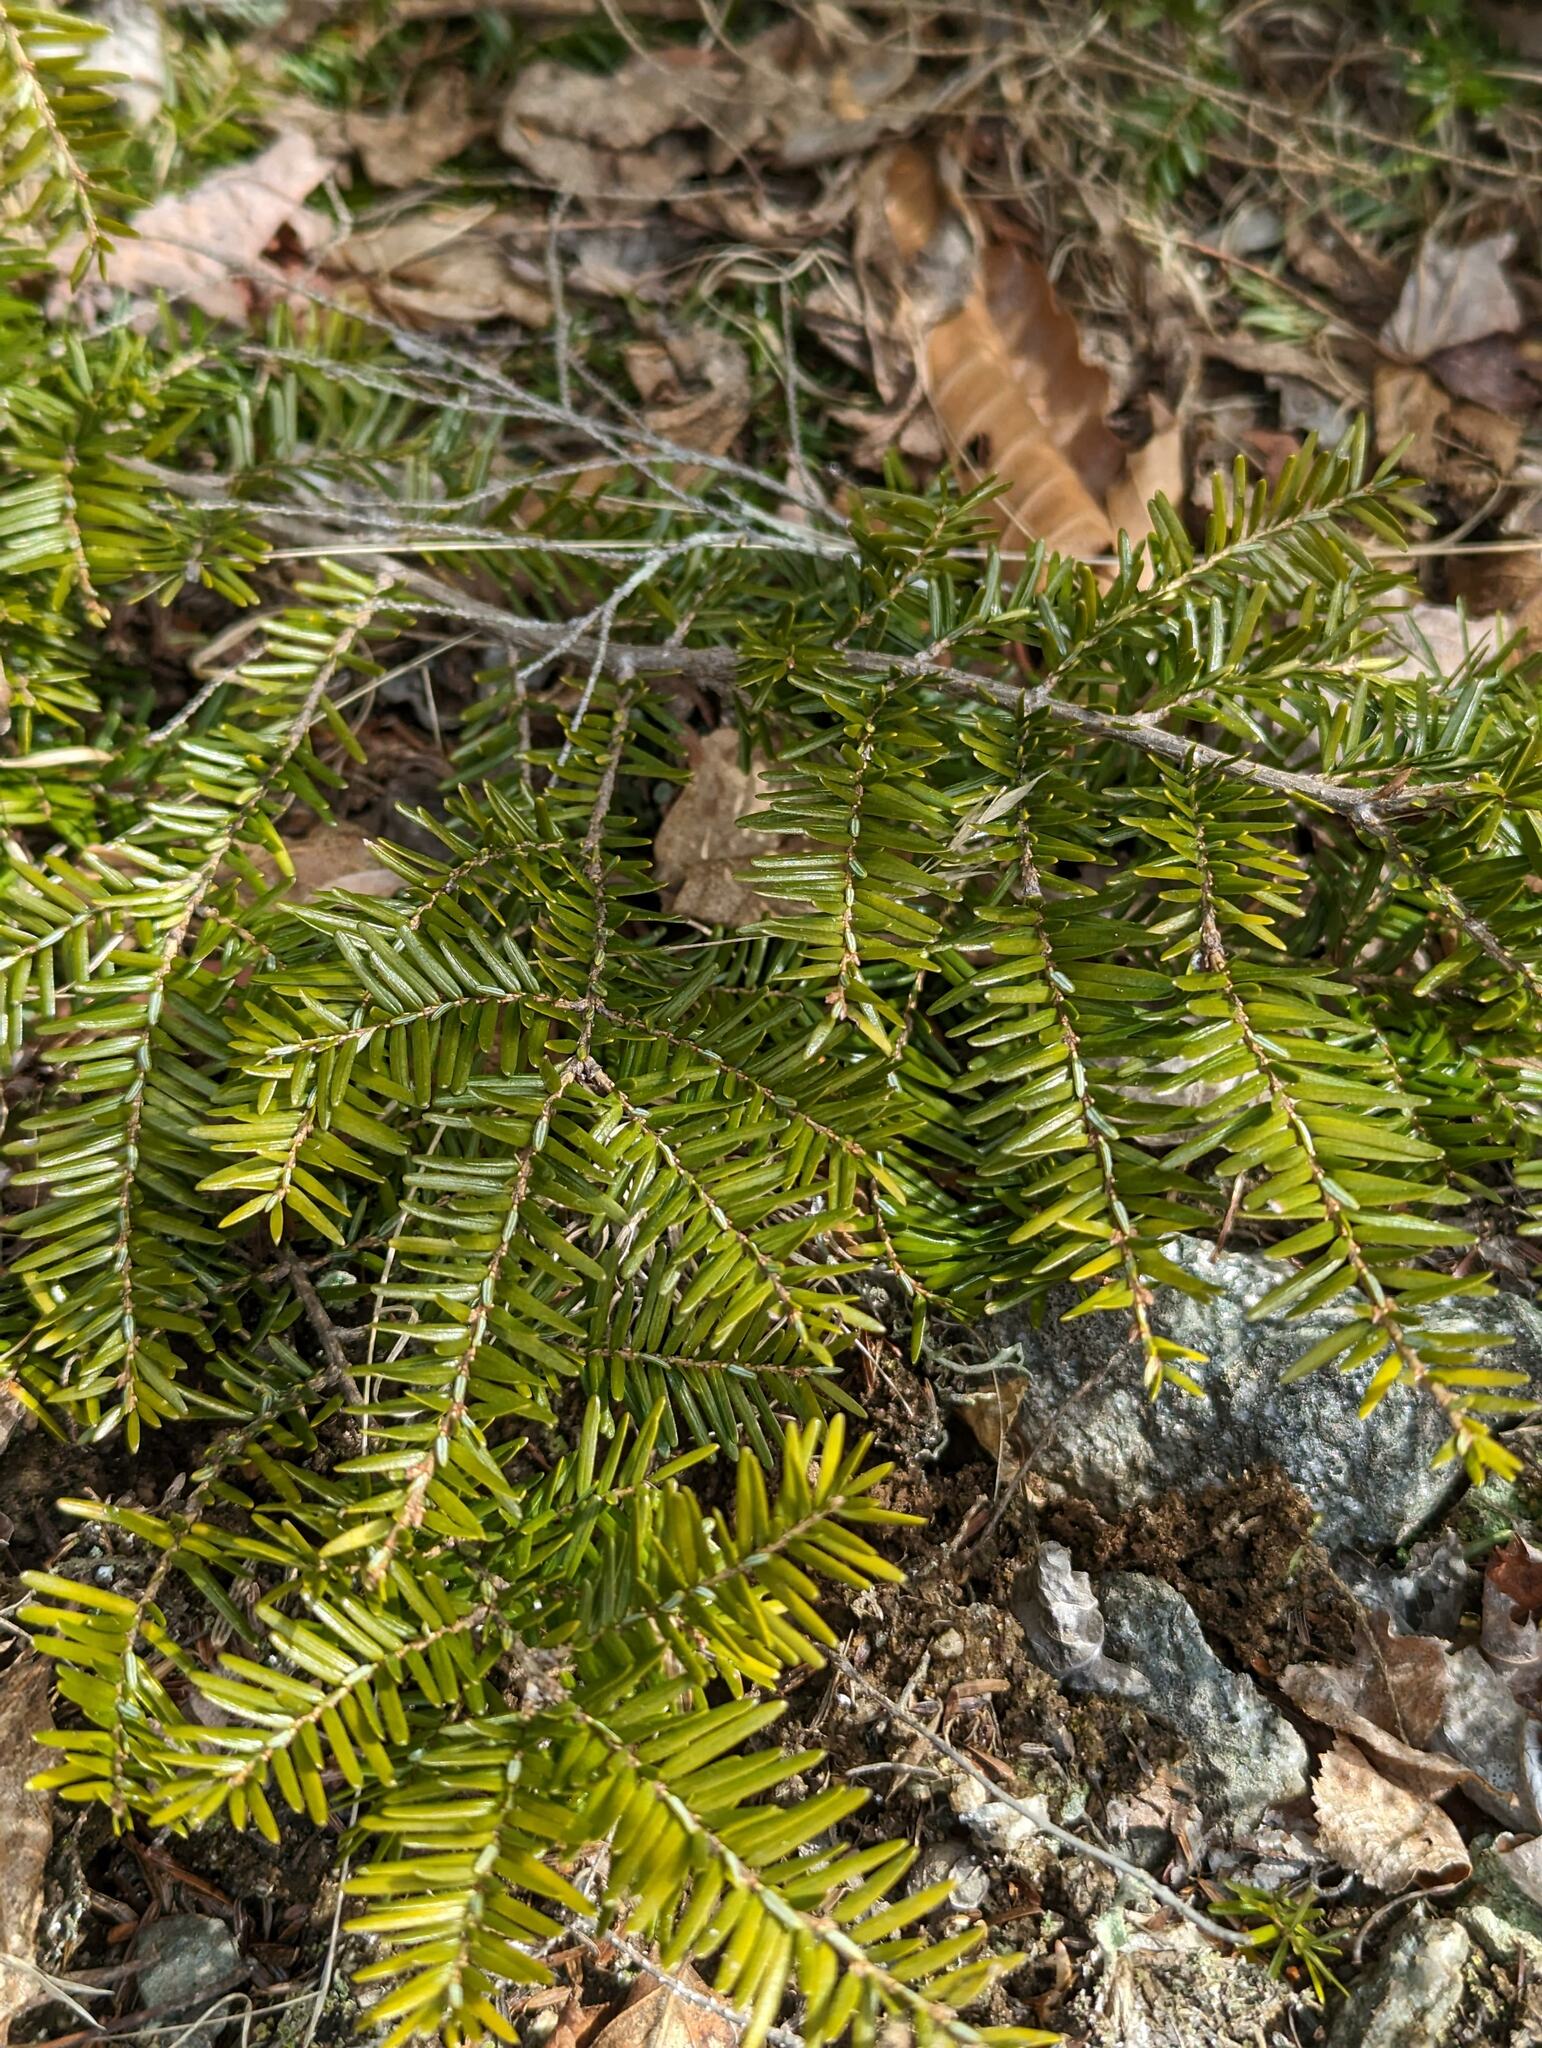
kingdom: Plantae
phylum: Tracheophyta
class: Pinopsida
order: Pinales
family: Pinaceae
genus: Tsuga
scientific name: Tsuga canadensis
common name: Eastern hemlock
